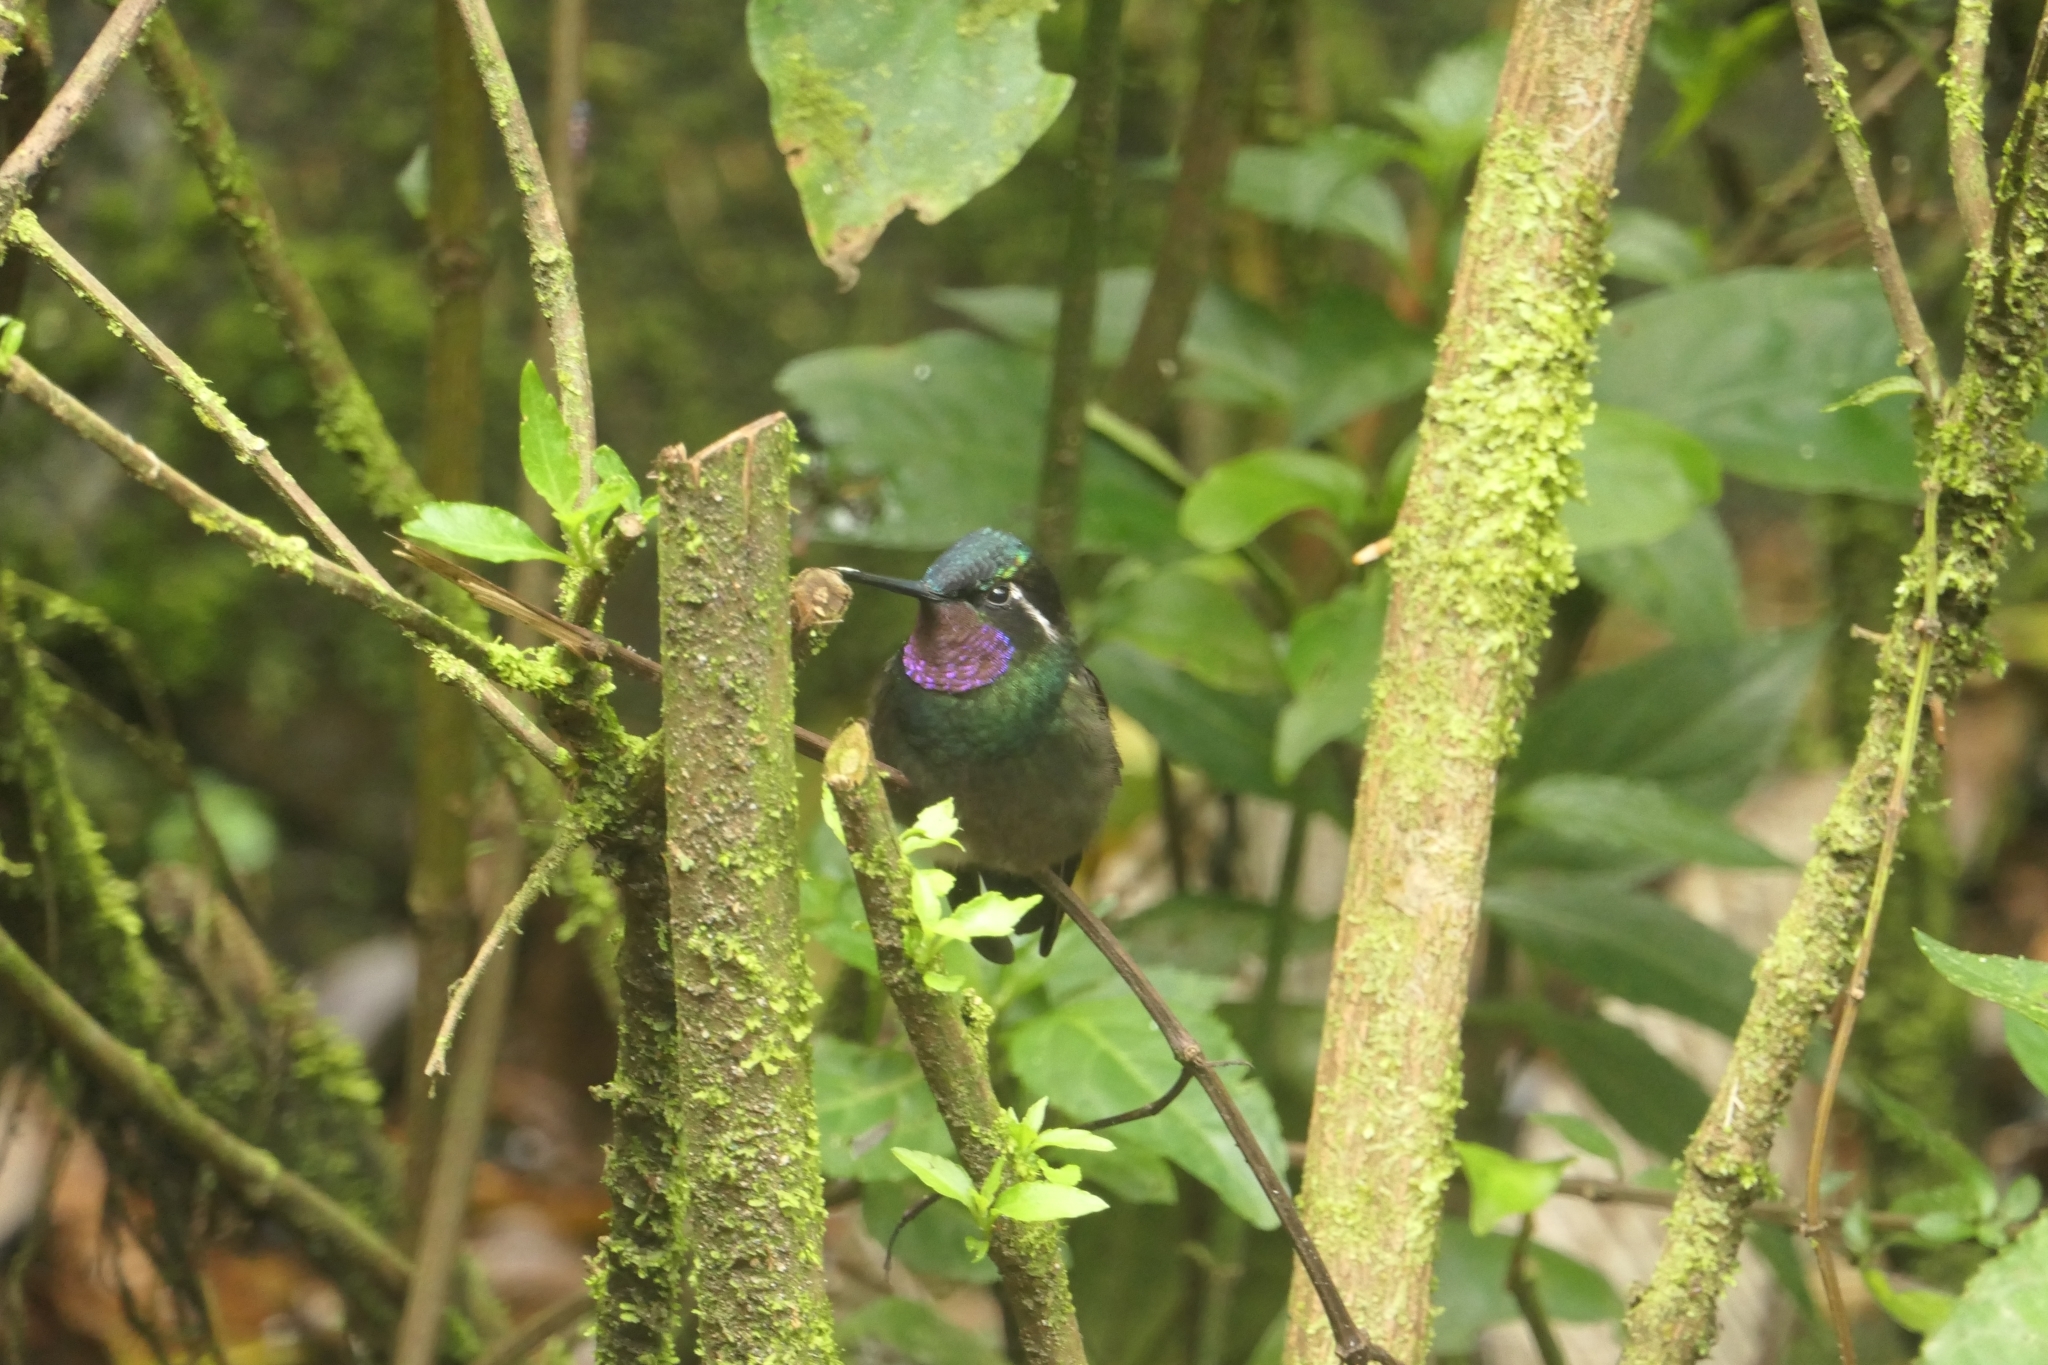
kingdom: Animalia
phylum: Chordata
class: Aves
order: Apodiformes
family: Trochilidae
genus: Lampornis
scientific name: Lampornis calolaemus
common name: Purple-throated mountain-gem
